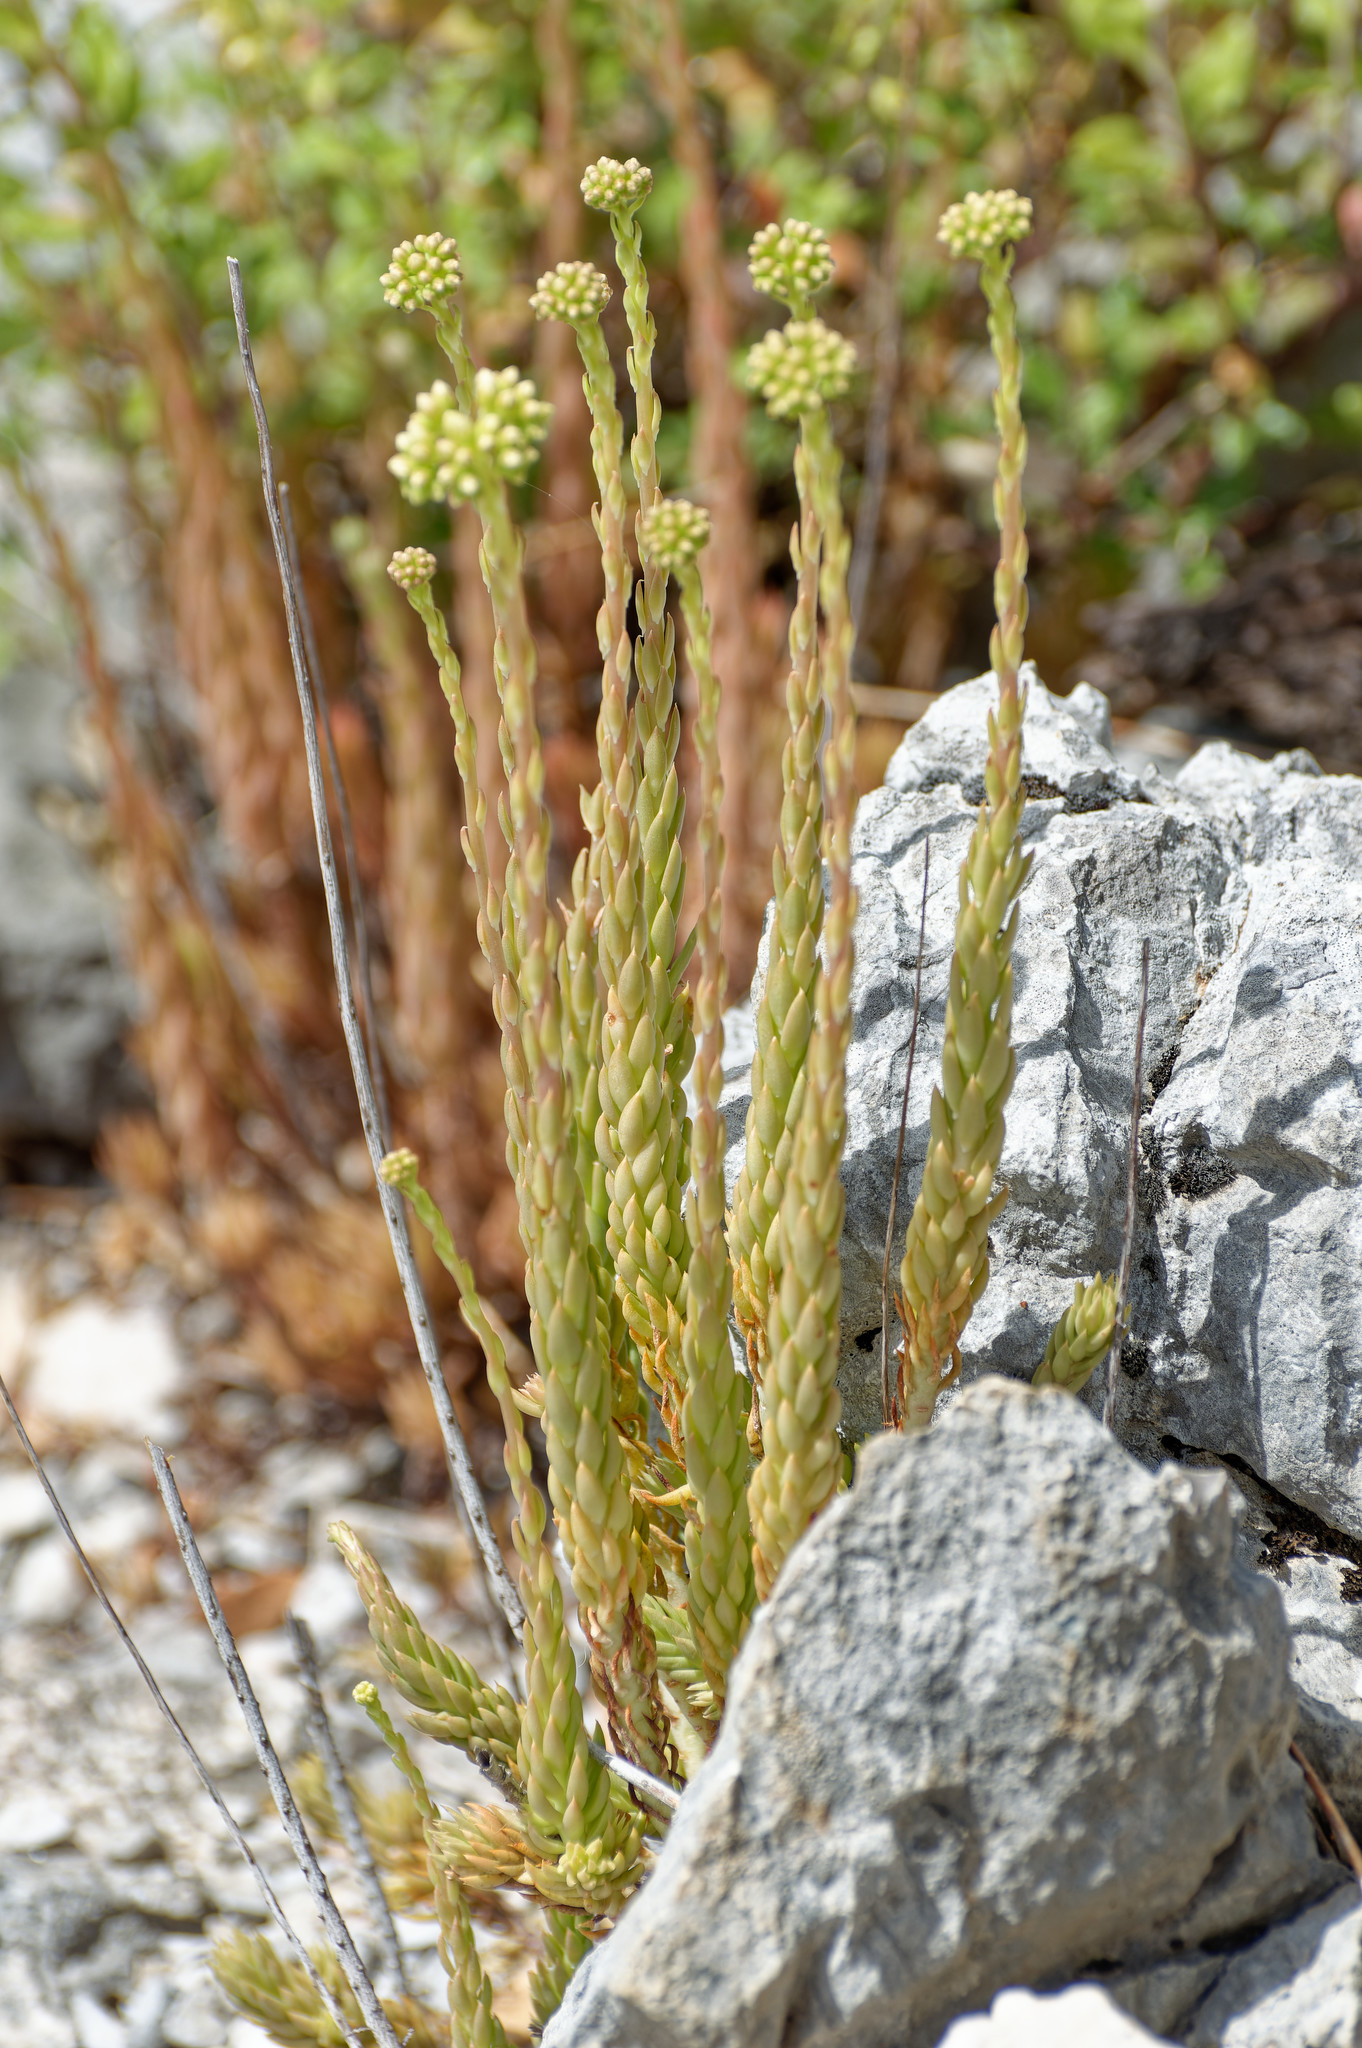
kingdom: Plantae
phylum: Tracheophyta
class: Magnoliopsida
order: Saxifragales
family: Crassulaceae
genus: Petrosedum
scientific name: Petrosedum sediforme
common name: Pale stonecrop
